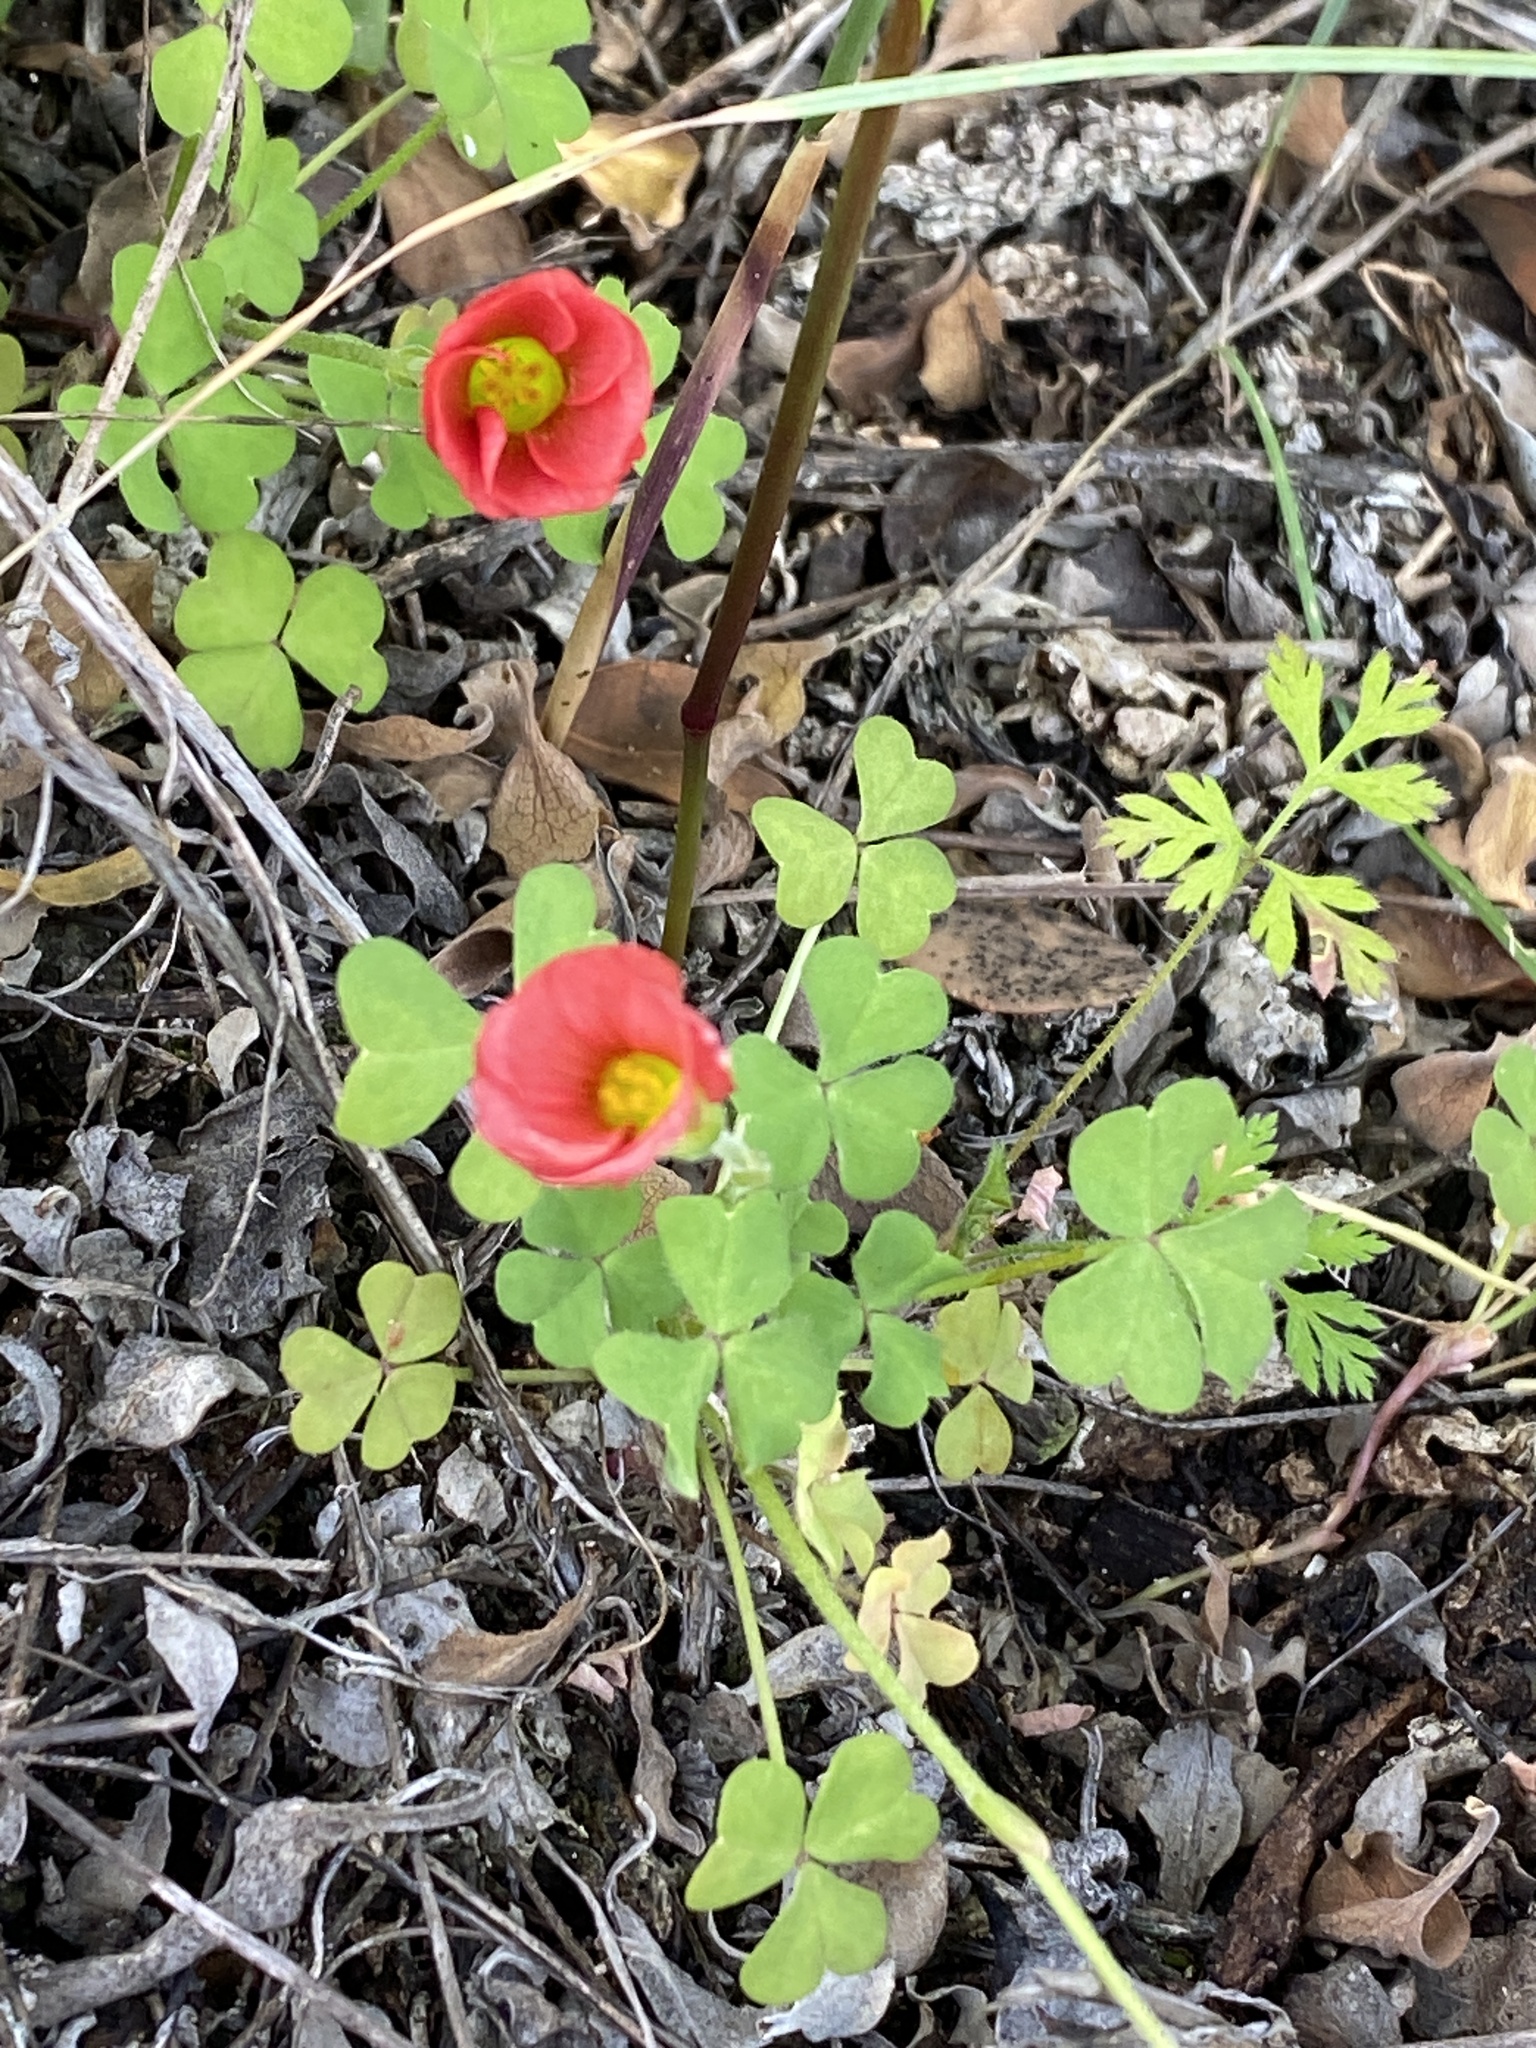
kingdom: Plantae
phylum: Tracheophyta
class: Magnoliopsida
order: Oxalidales
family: Oxalidaceae
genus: Oxalis
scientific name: Oxalis obtusa
